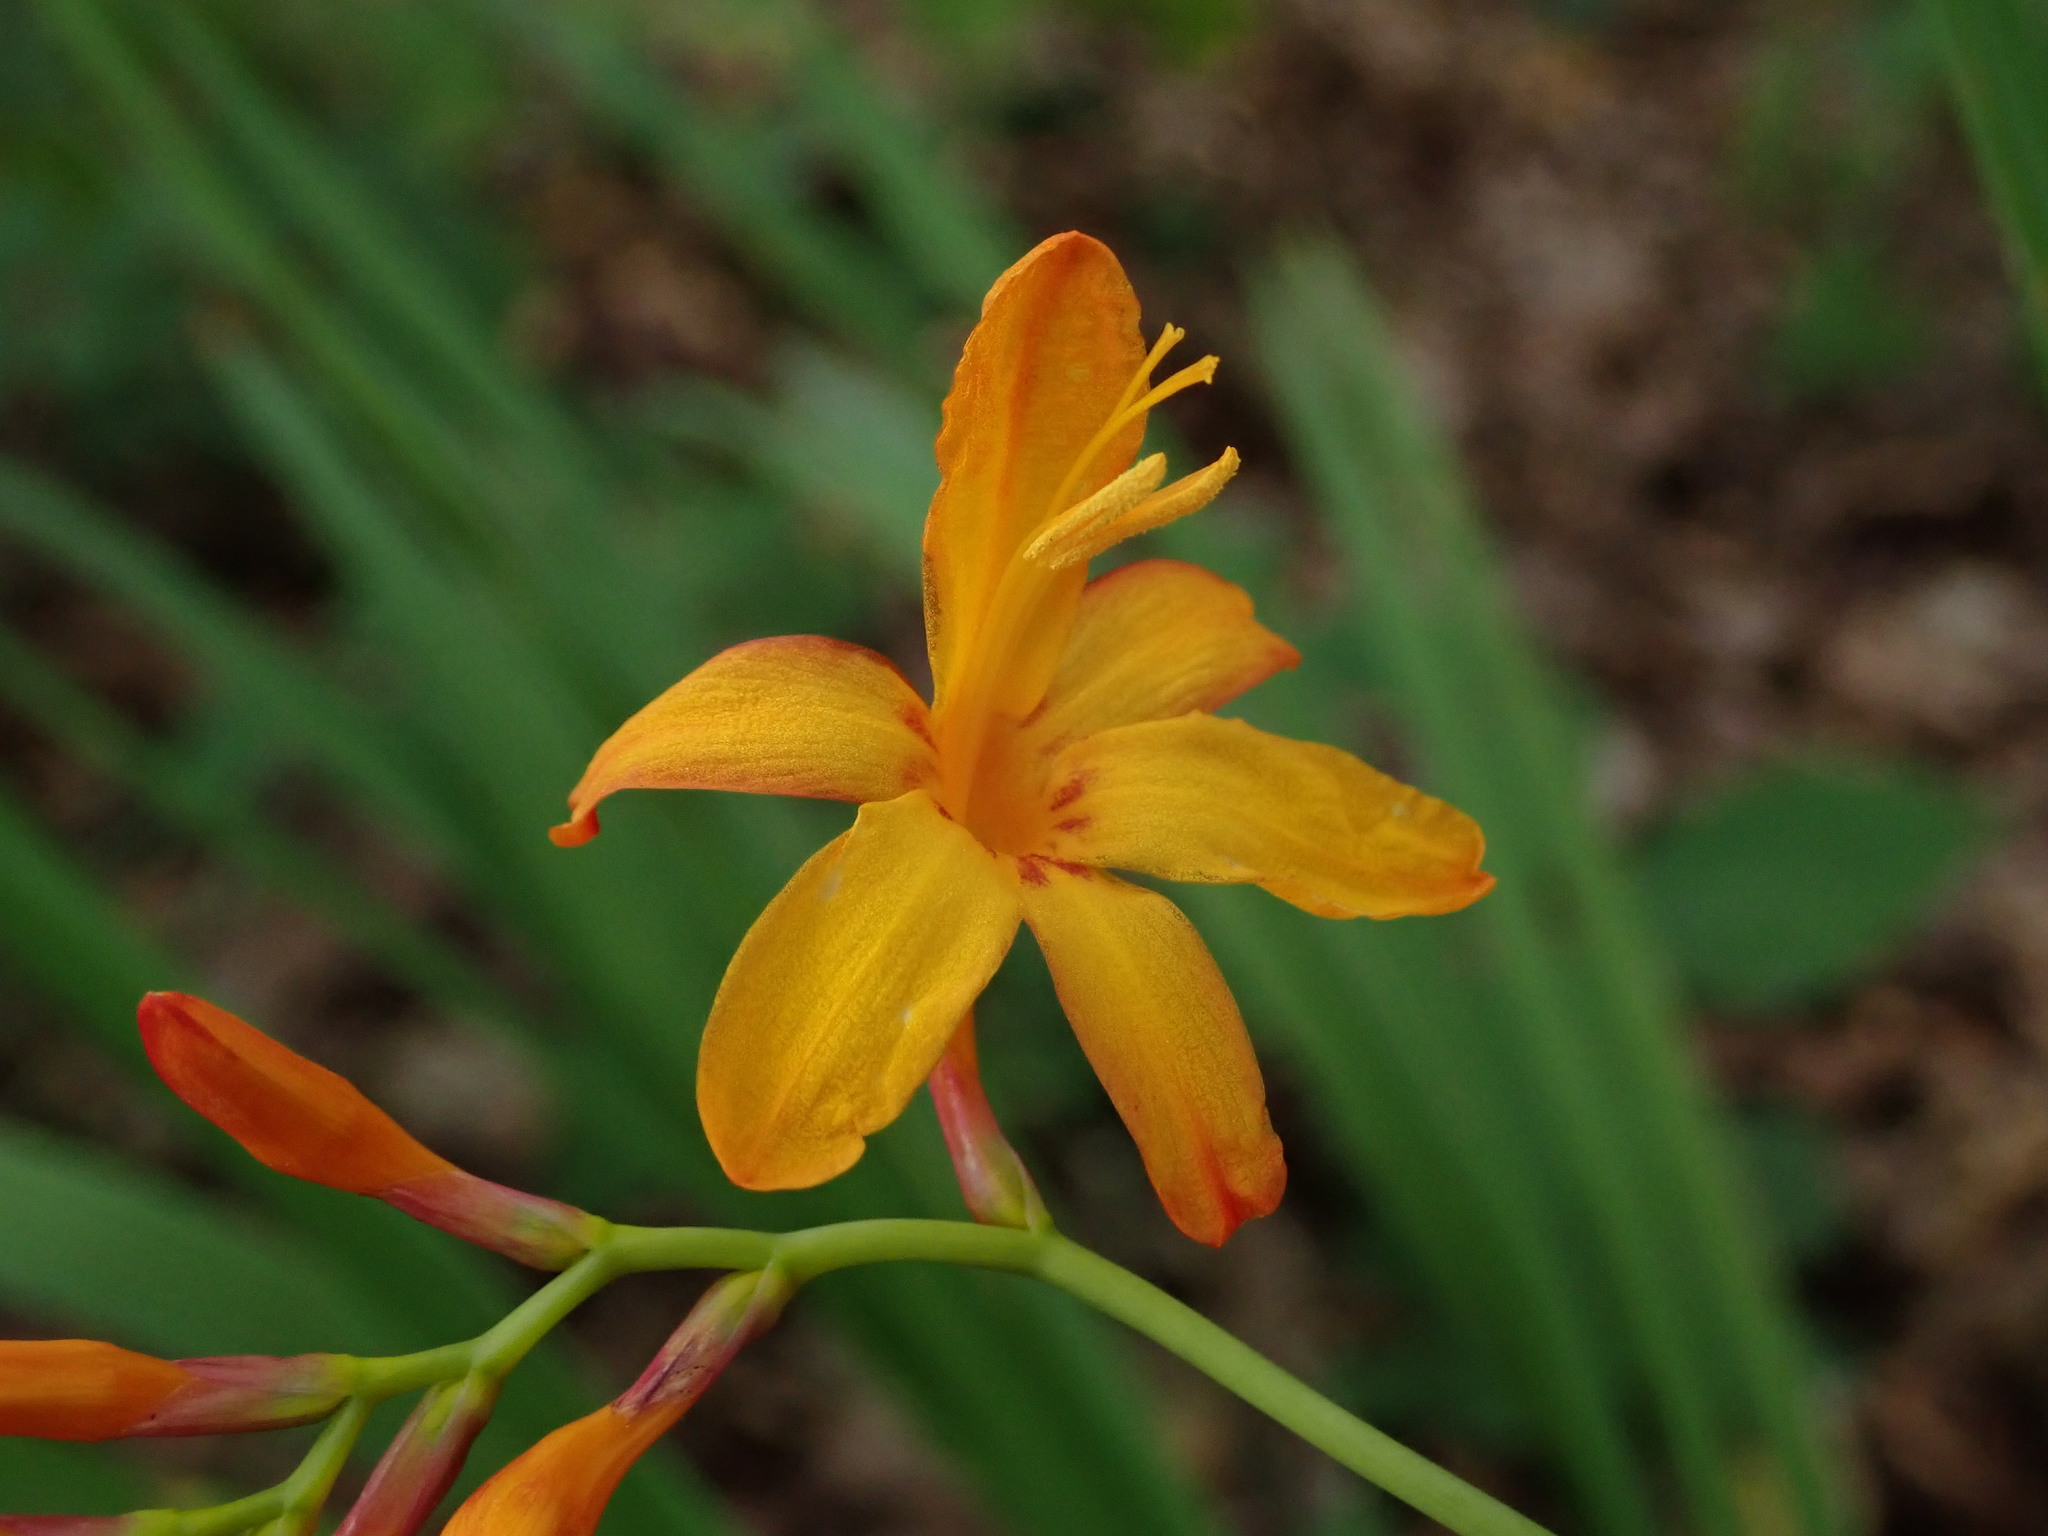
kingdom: Plantae
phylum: Tracheophyta
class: Liliopsida
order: Asparagales
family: Iridaceae
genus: Crocosmia
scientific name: Crocosmia crocosmiiflora
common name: Montbretia
